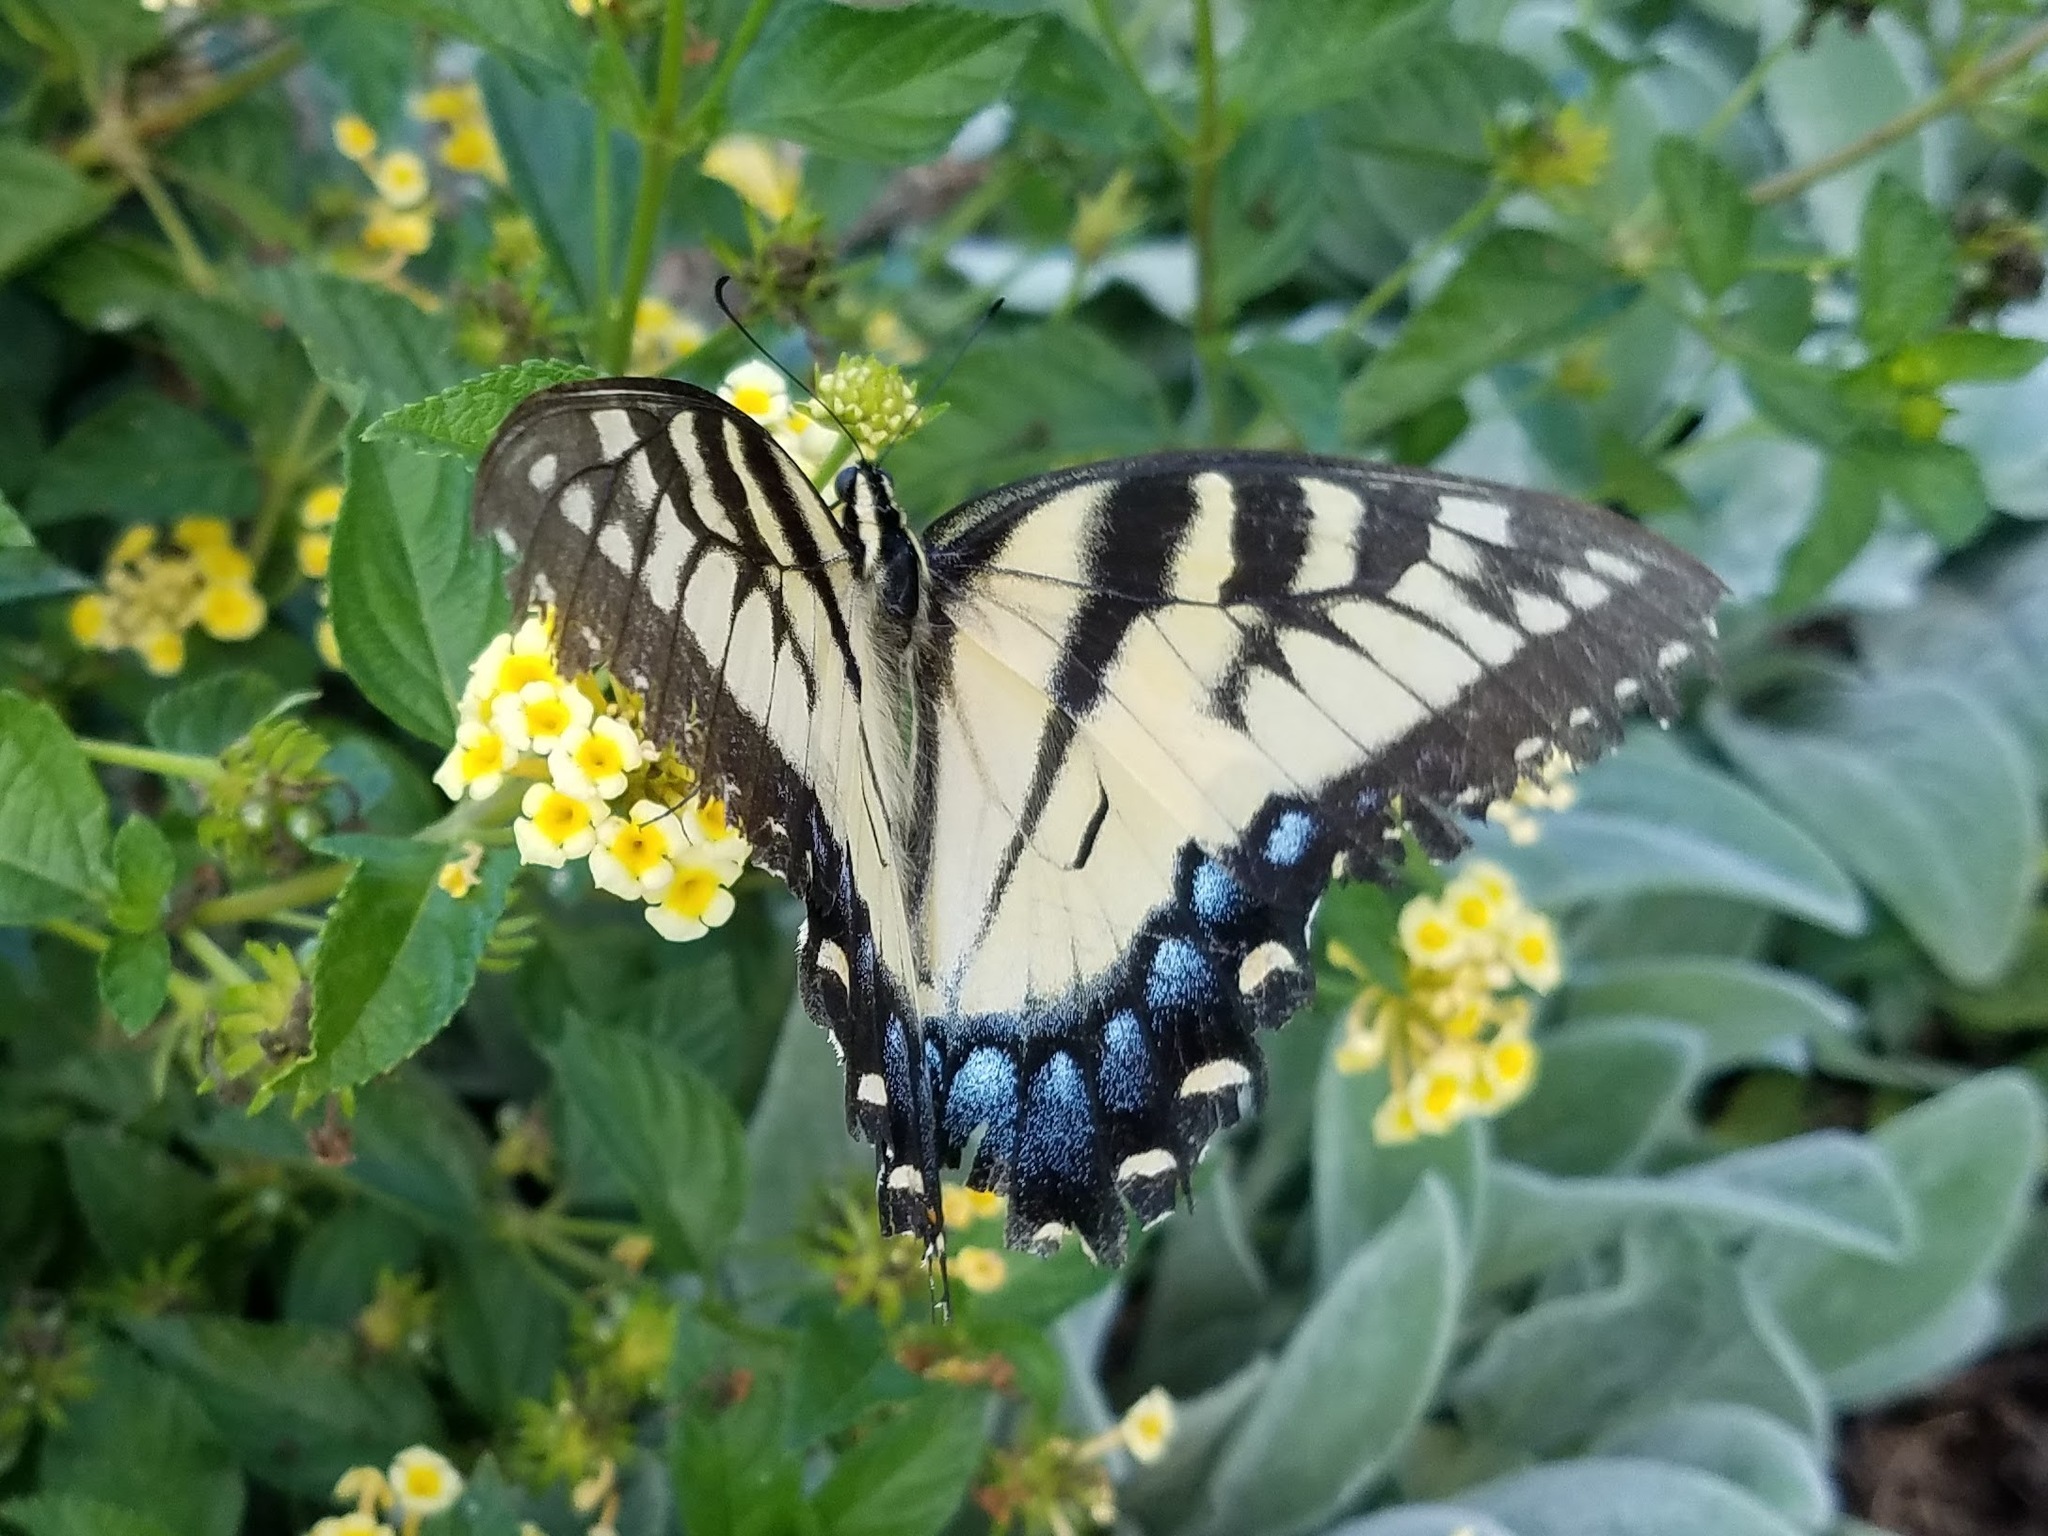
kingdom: Animalia
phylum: Arthropoda
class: Insecta
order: Lepidoptera
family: Papilionidae
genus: Papilio
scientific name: Papilio glaucus
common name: Tiger swallowtail
